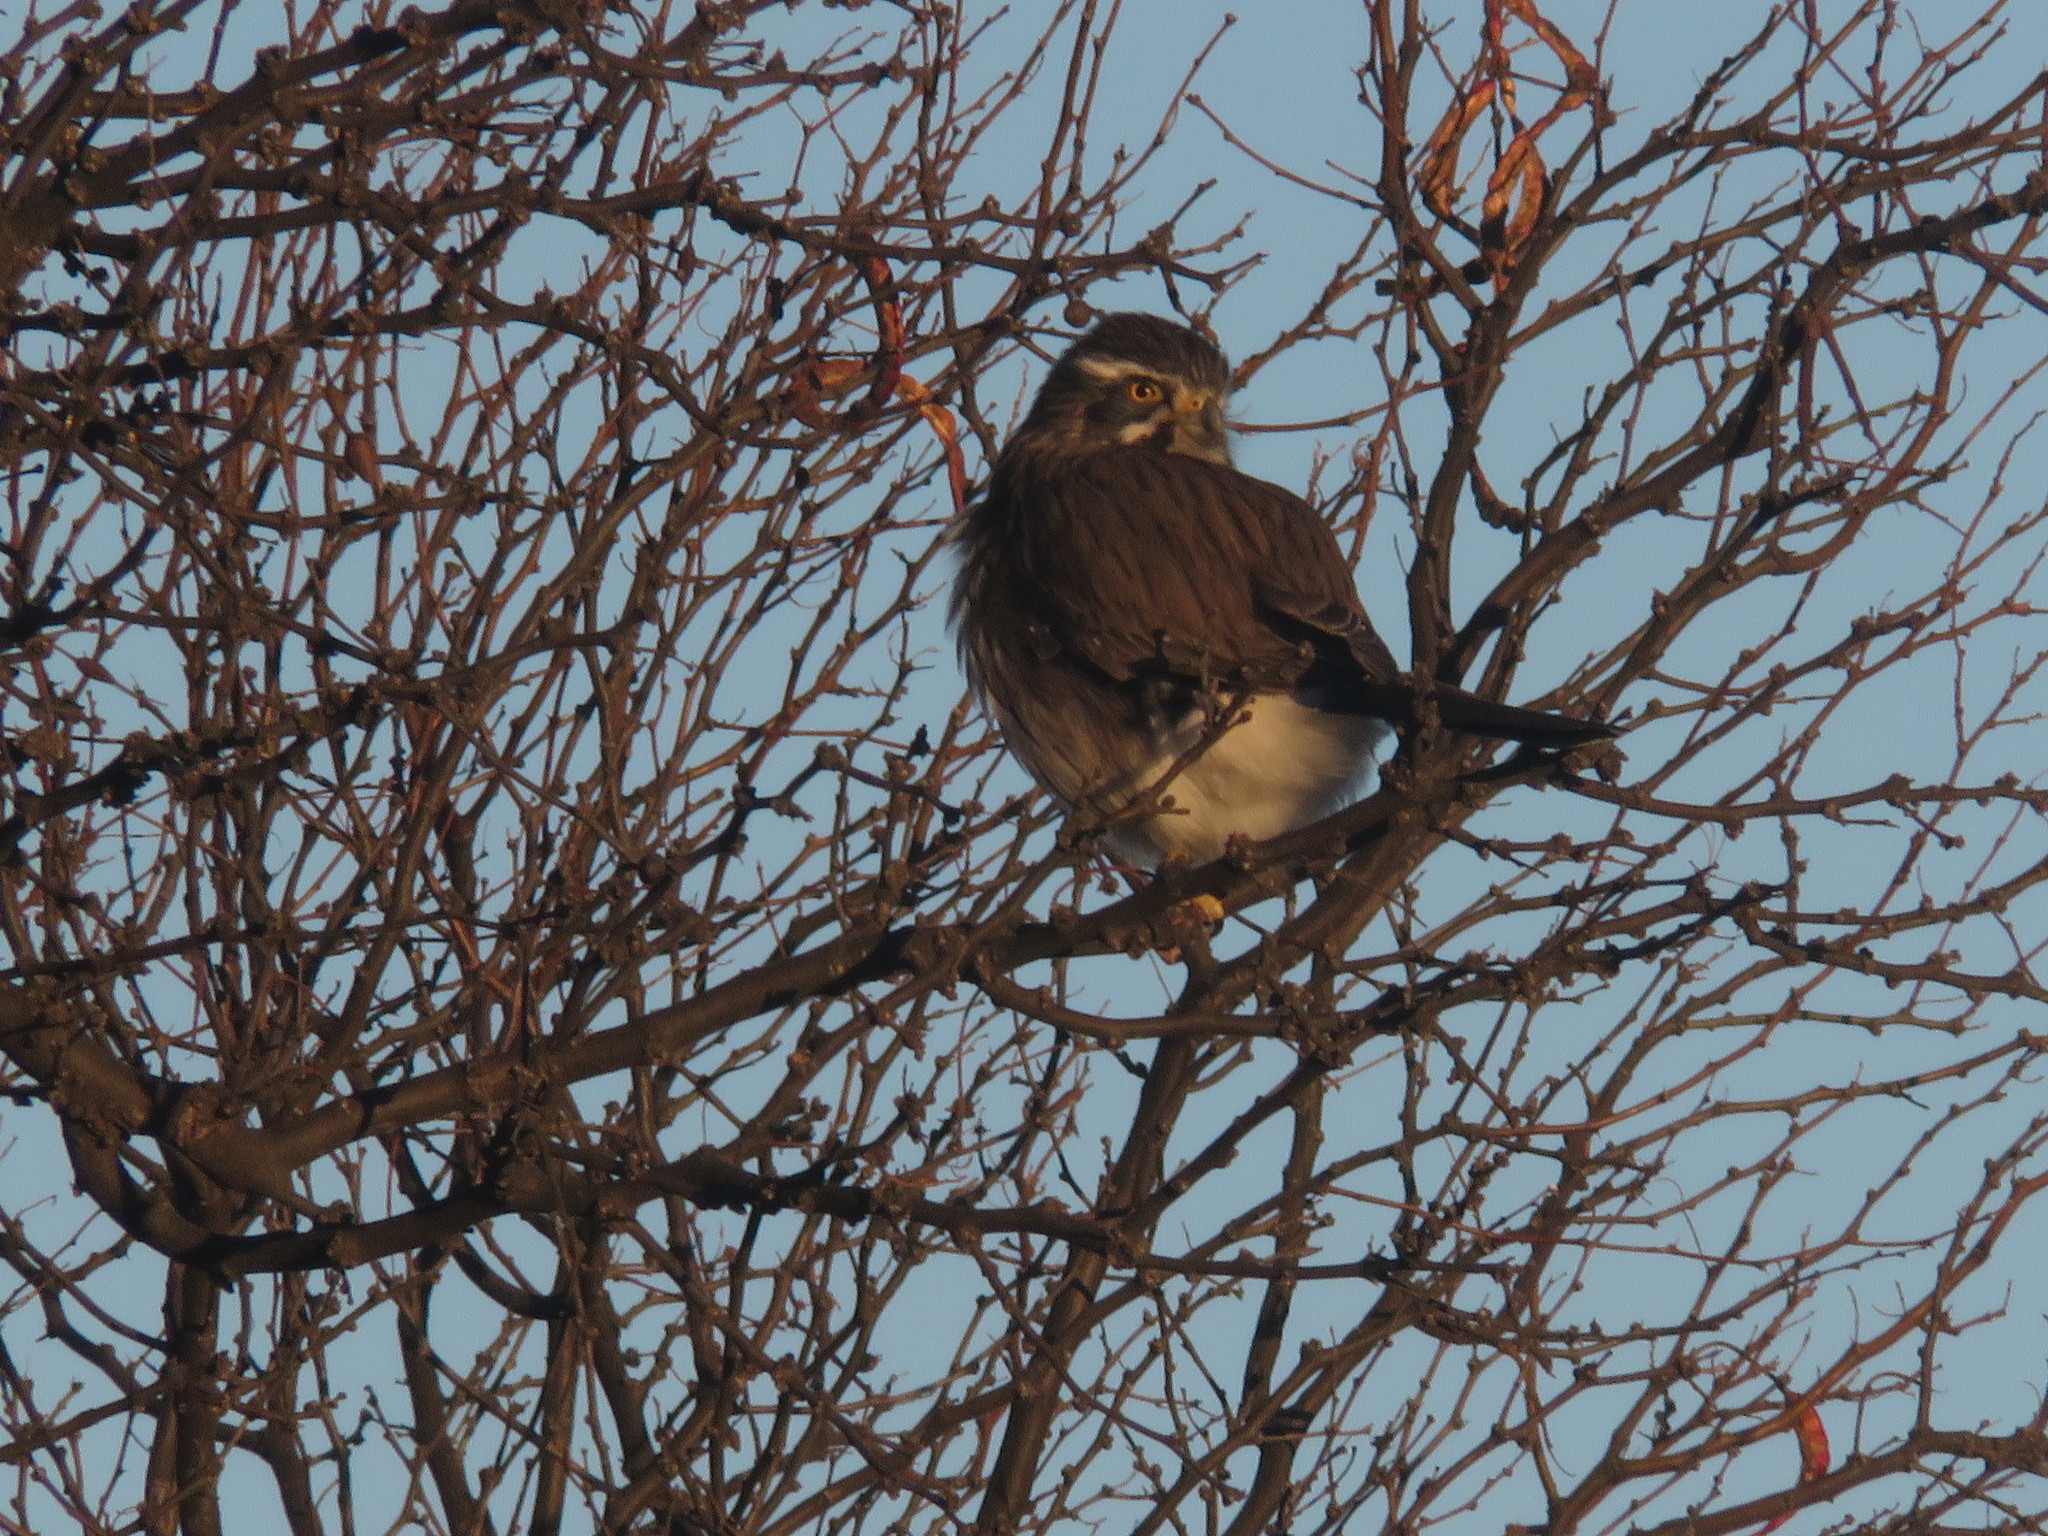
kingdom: Animalia
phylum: Chordata
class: Aves
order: Falconiformes
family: Falconidae
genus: Spiziapteryx
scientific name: Spiziapteryx circumcincta
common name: Spot-winged falconet
